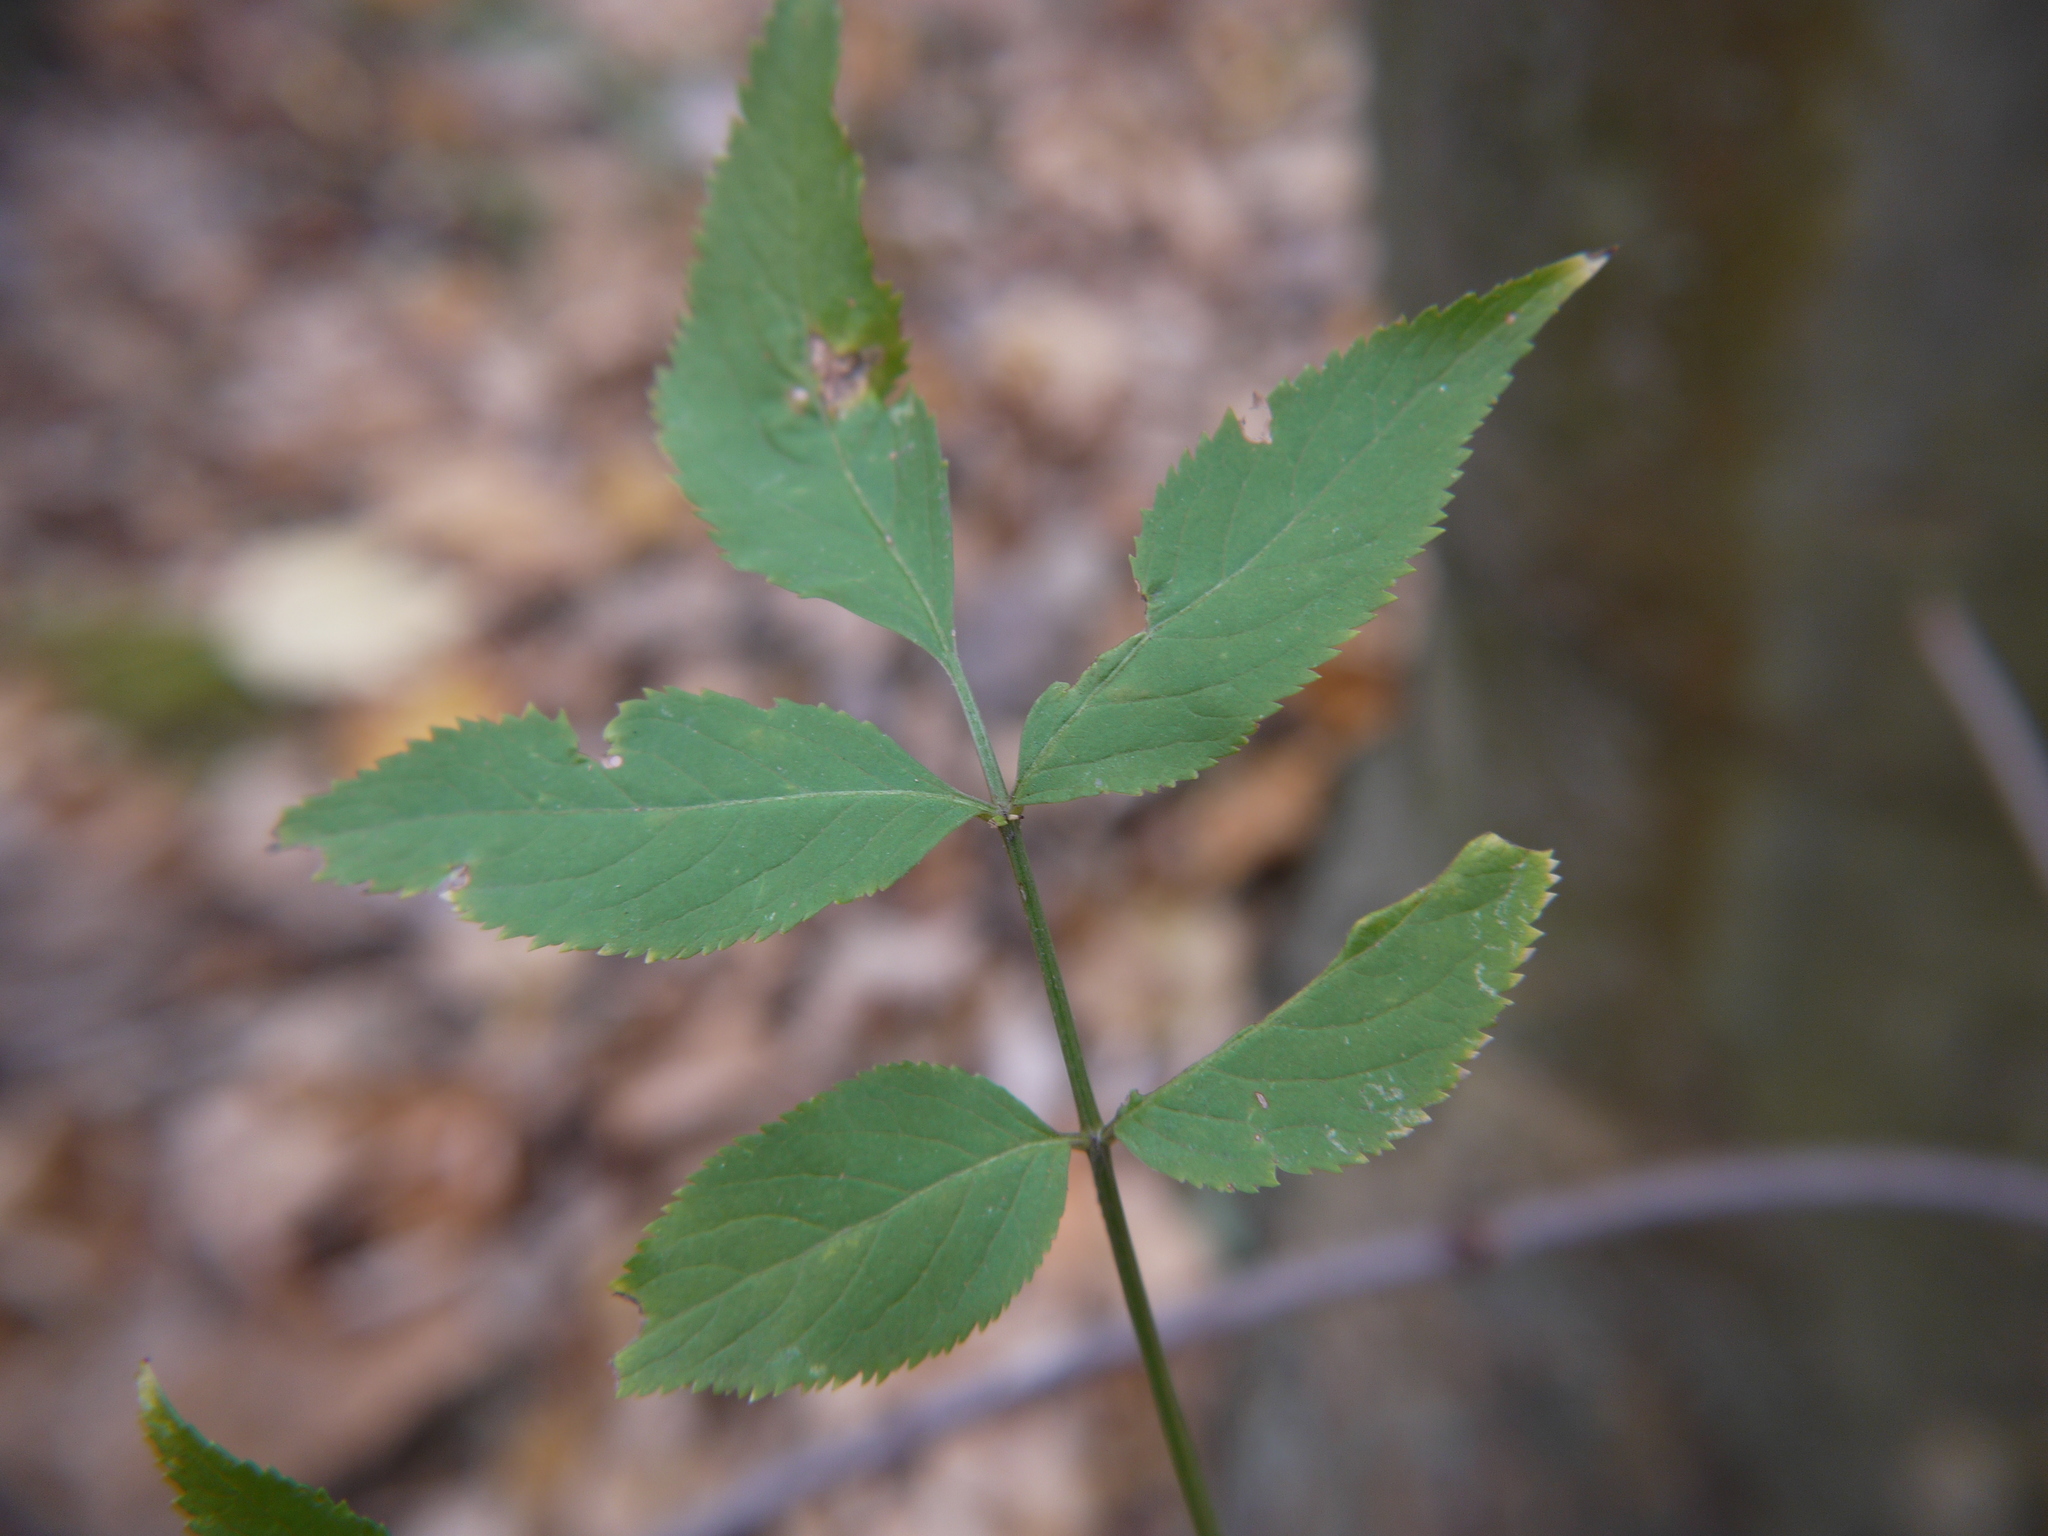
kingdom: Plantae
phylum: Tracheophyta
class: Magnoliopsida
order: Dipsacales
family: Viburnaceae
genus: Sambucus
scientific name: Sambucus nigra
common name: Elder
